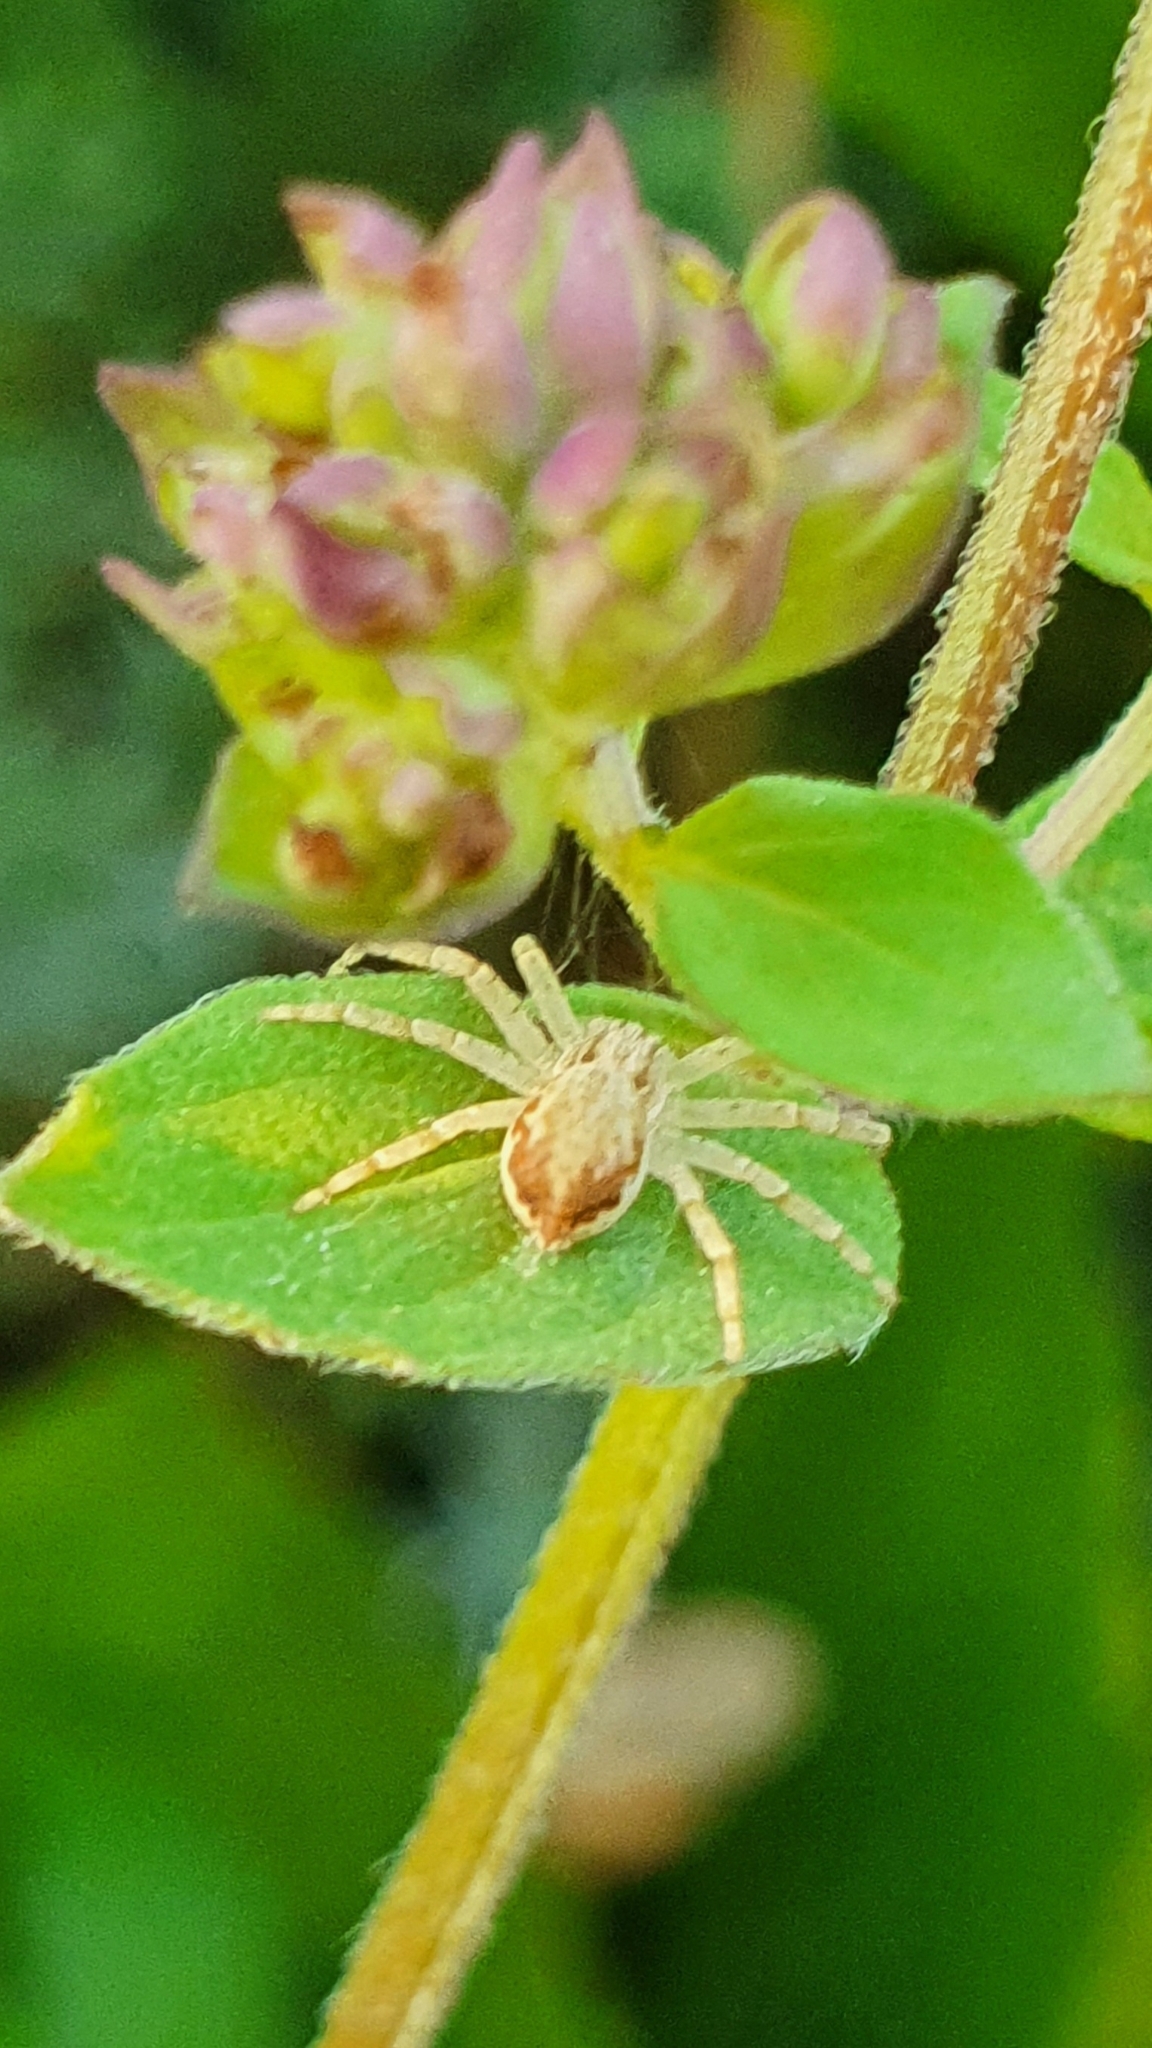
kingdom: Animalia
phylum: Arthropoda
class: Arachnida
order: Araneae
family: Philodromidae
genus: Philodromus
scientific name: Philodromus dispar
